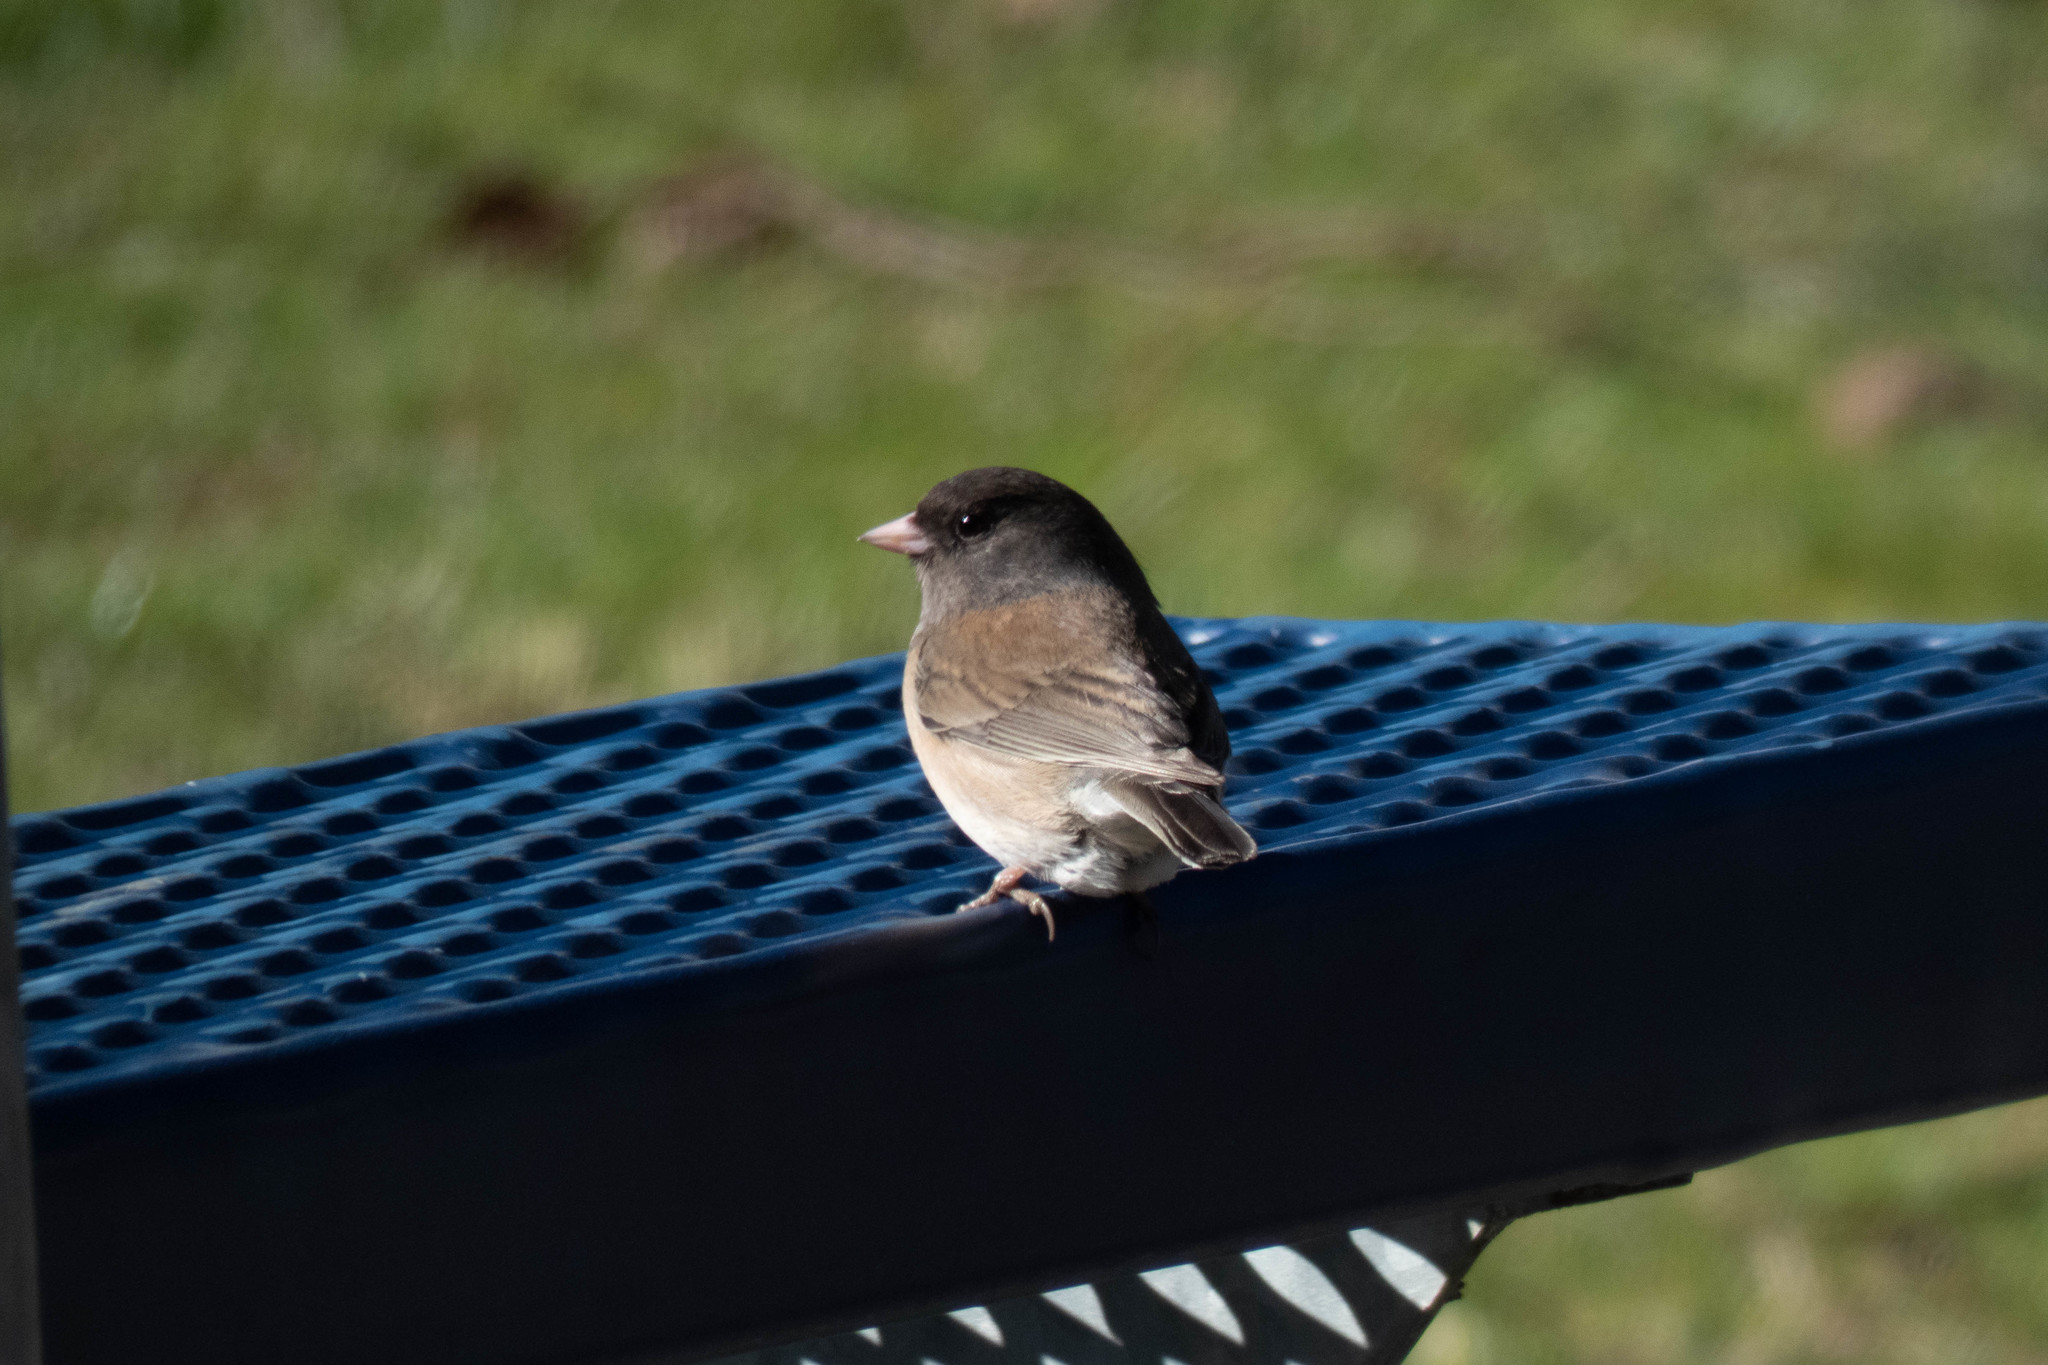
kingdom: Animalia
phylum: Chordata
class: Aves
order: Passeriformes
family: Passerellidae
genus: Junco
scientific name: Junco hyemalis
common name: Dark-eyed junco
